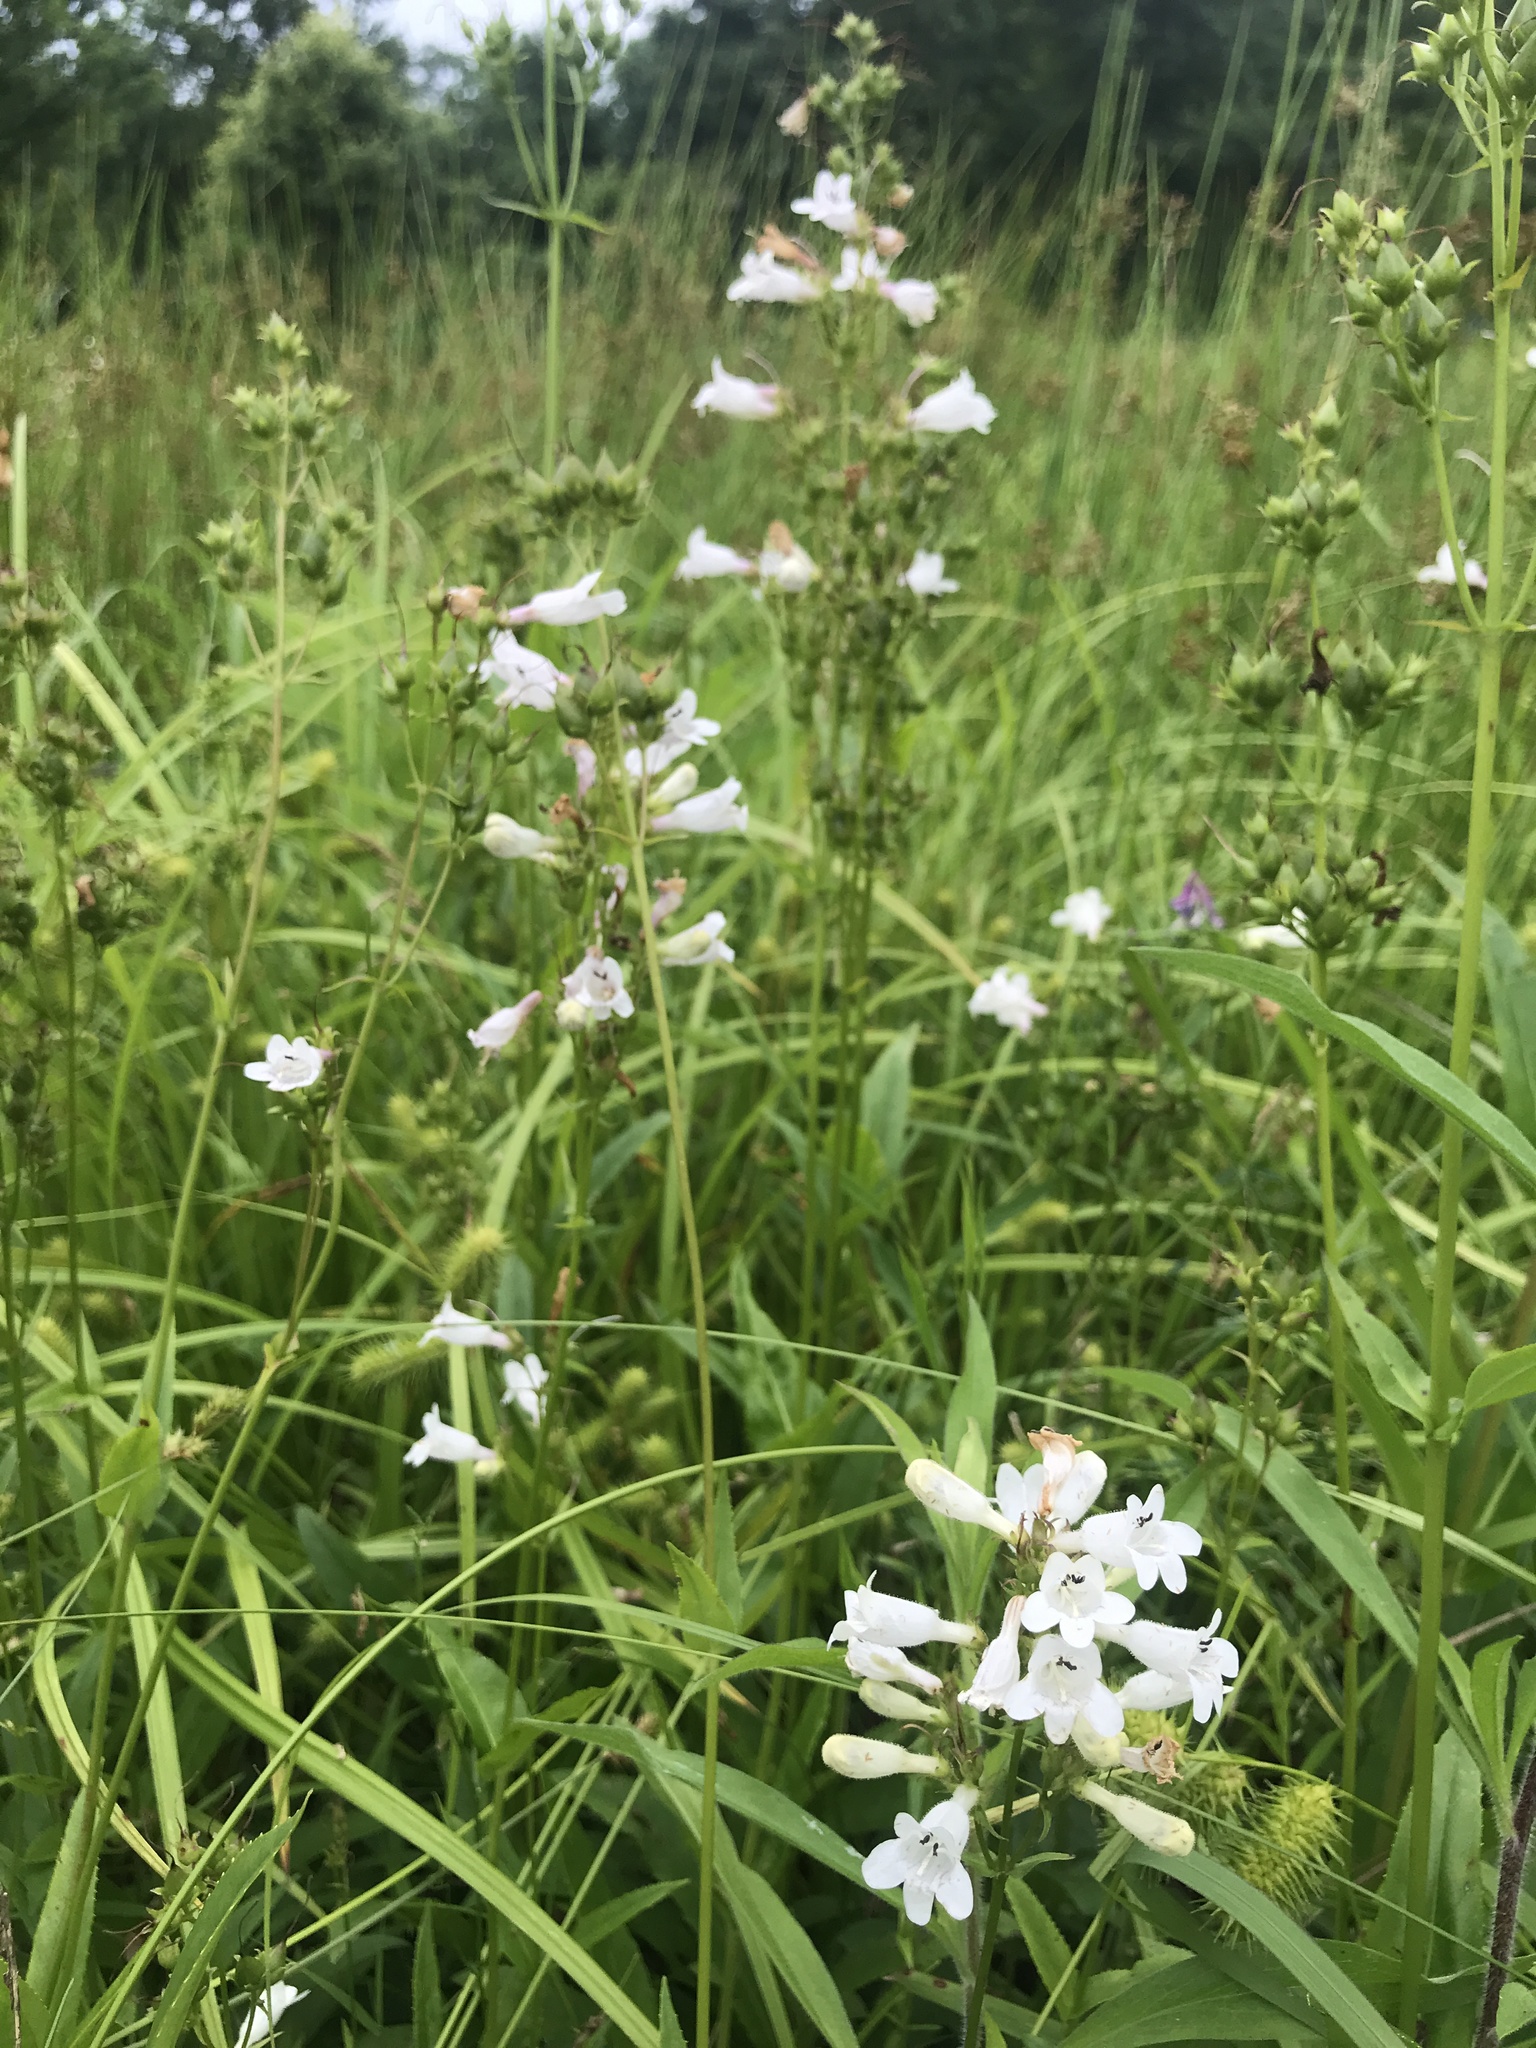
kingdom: Plantae
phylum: Tracheophyta
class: Magnoliopsida
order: Lamiales
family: Plantaginaceae
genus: Penstemon
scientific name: Penstemon digitalis
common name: Foxglove beardtongue
